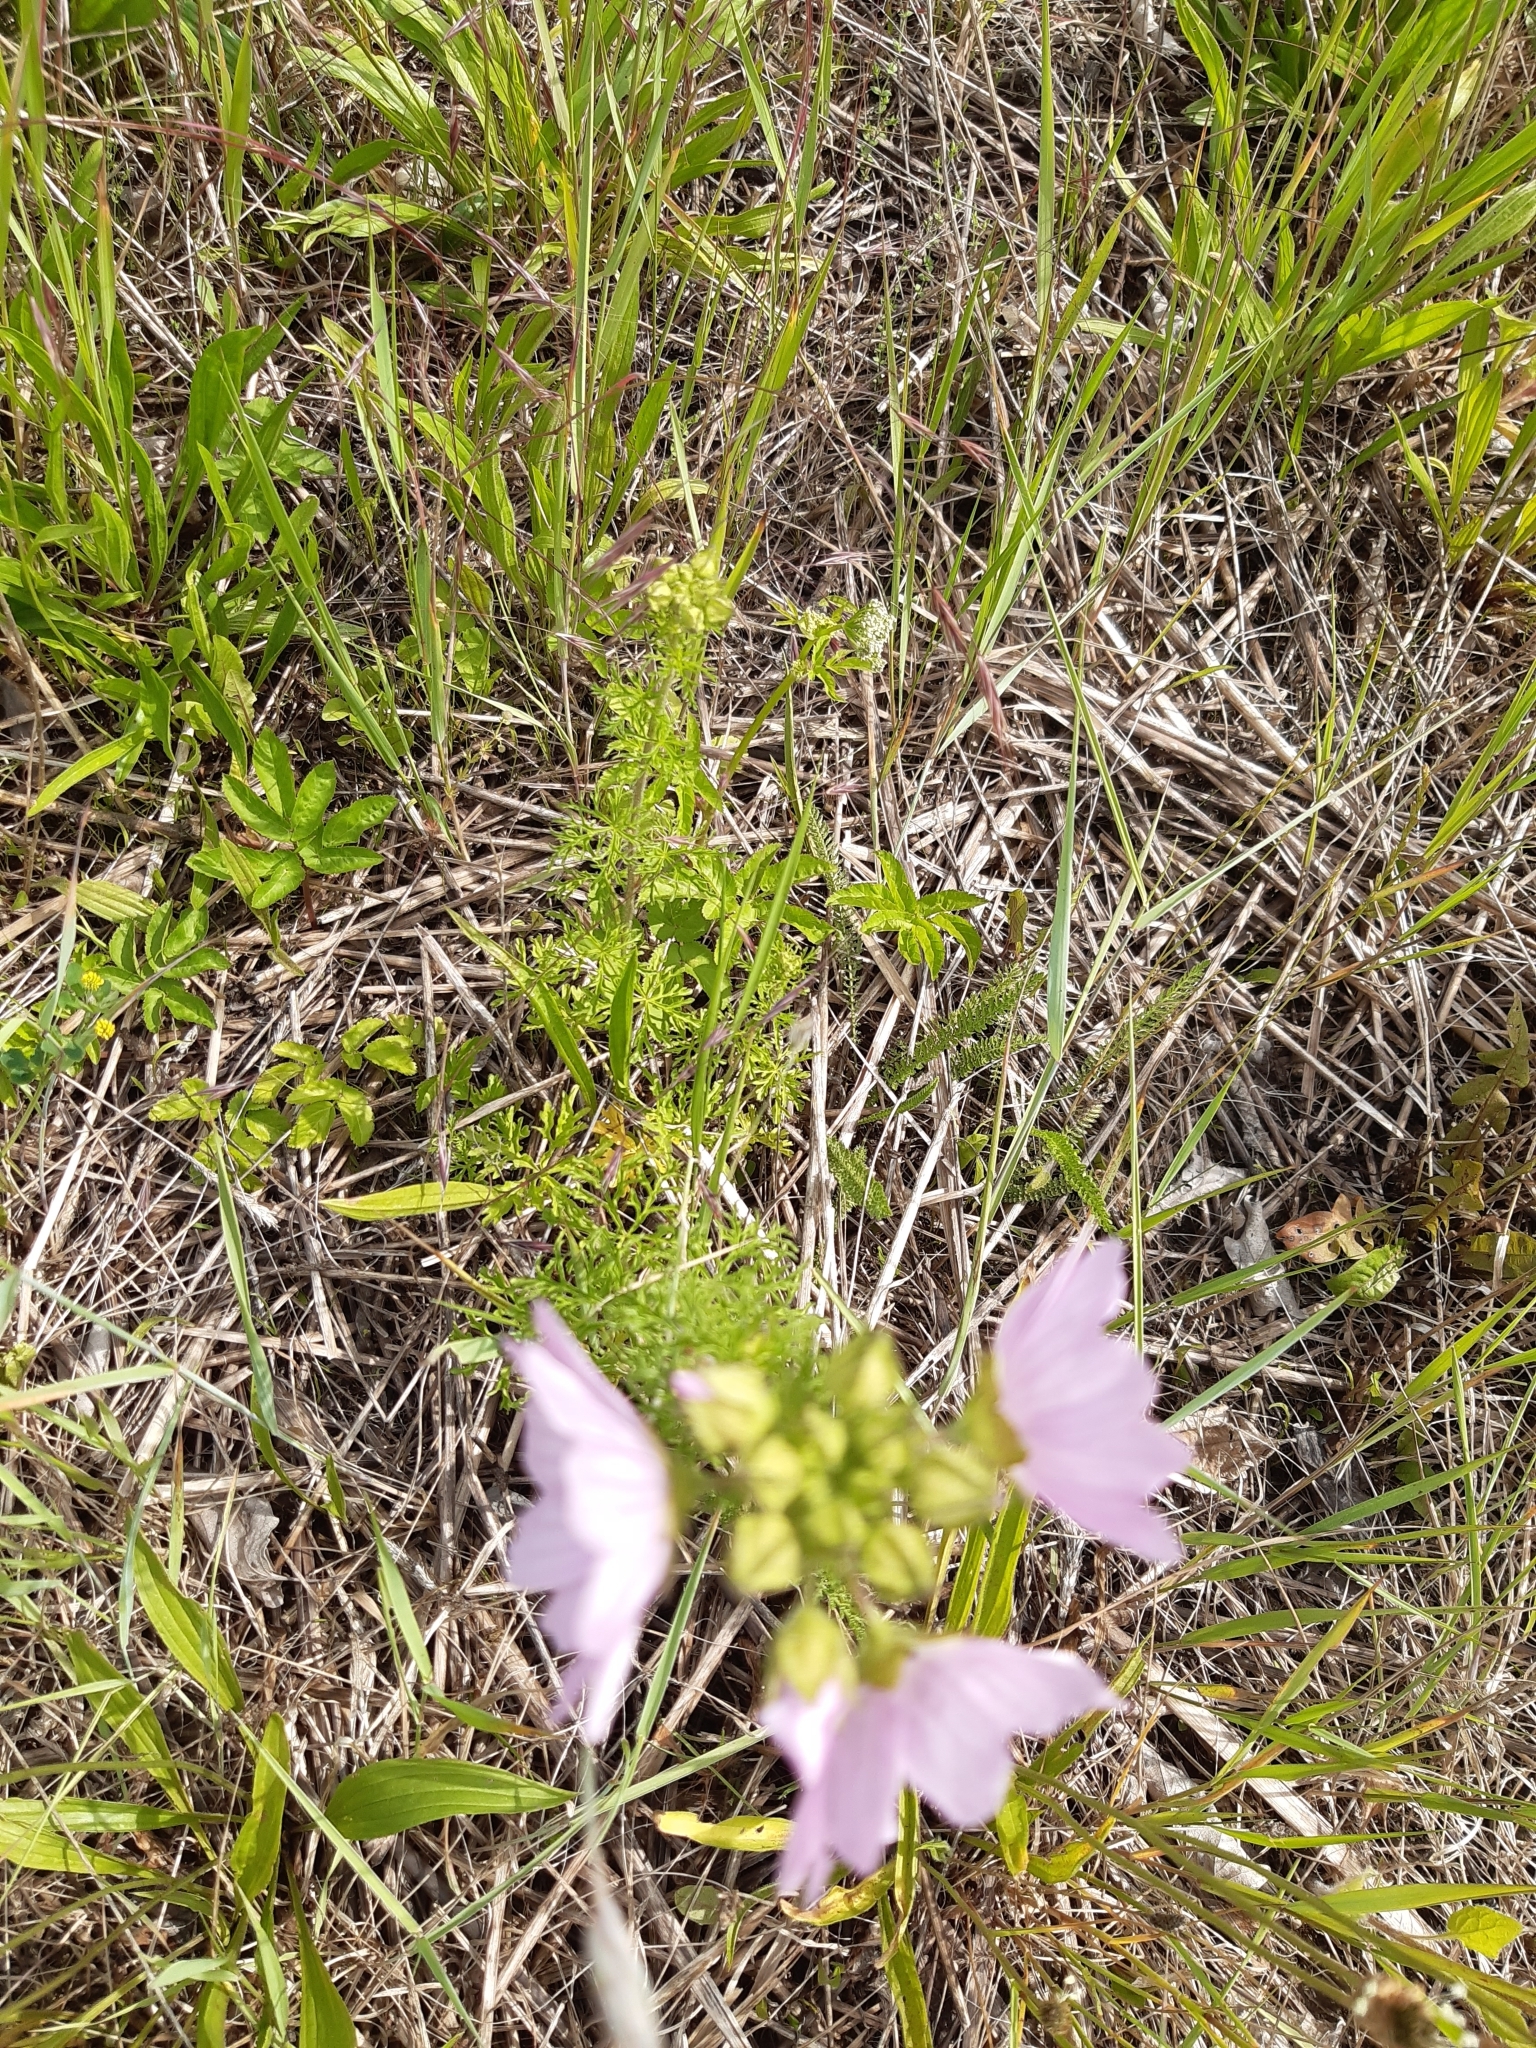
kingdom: Plantae
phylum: Tracheophyta
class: Magnoliopsida
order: Malvales
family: Malvaceae
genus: Malva
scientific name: Malva moschata
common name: Musk mallow
